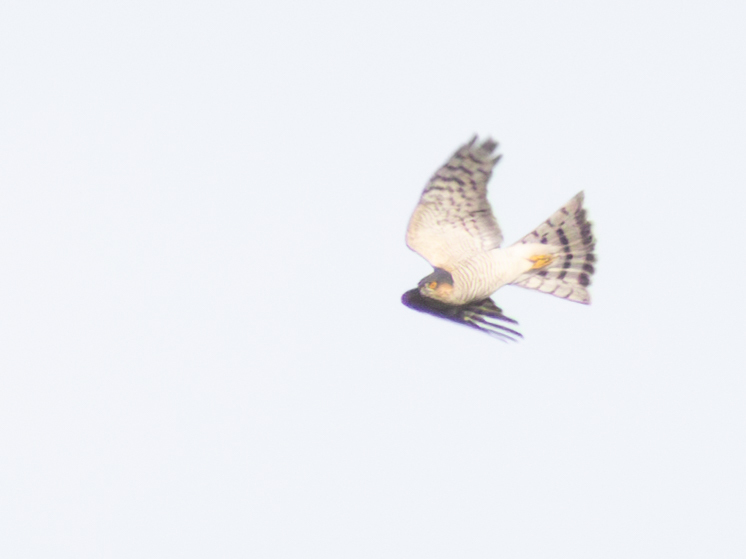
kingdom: Animalia
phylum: Chordata
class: Aves
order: Accipitriformes
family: Accipitridae
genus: Accipiter
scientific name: Accipiter nisus
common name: Eurasian sparrowhawk
